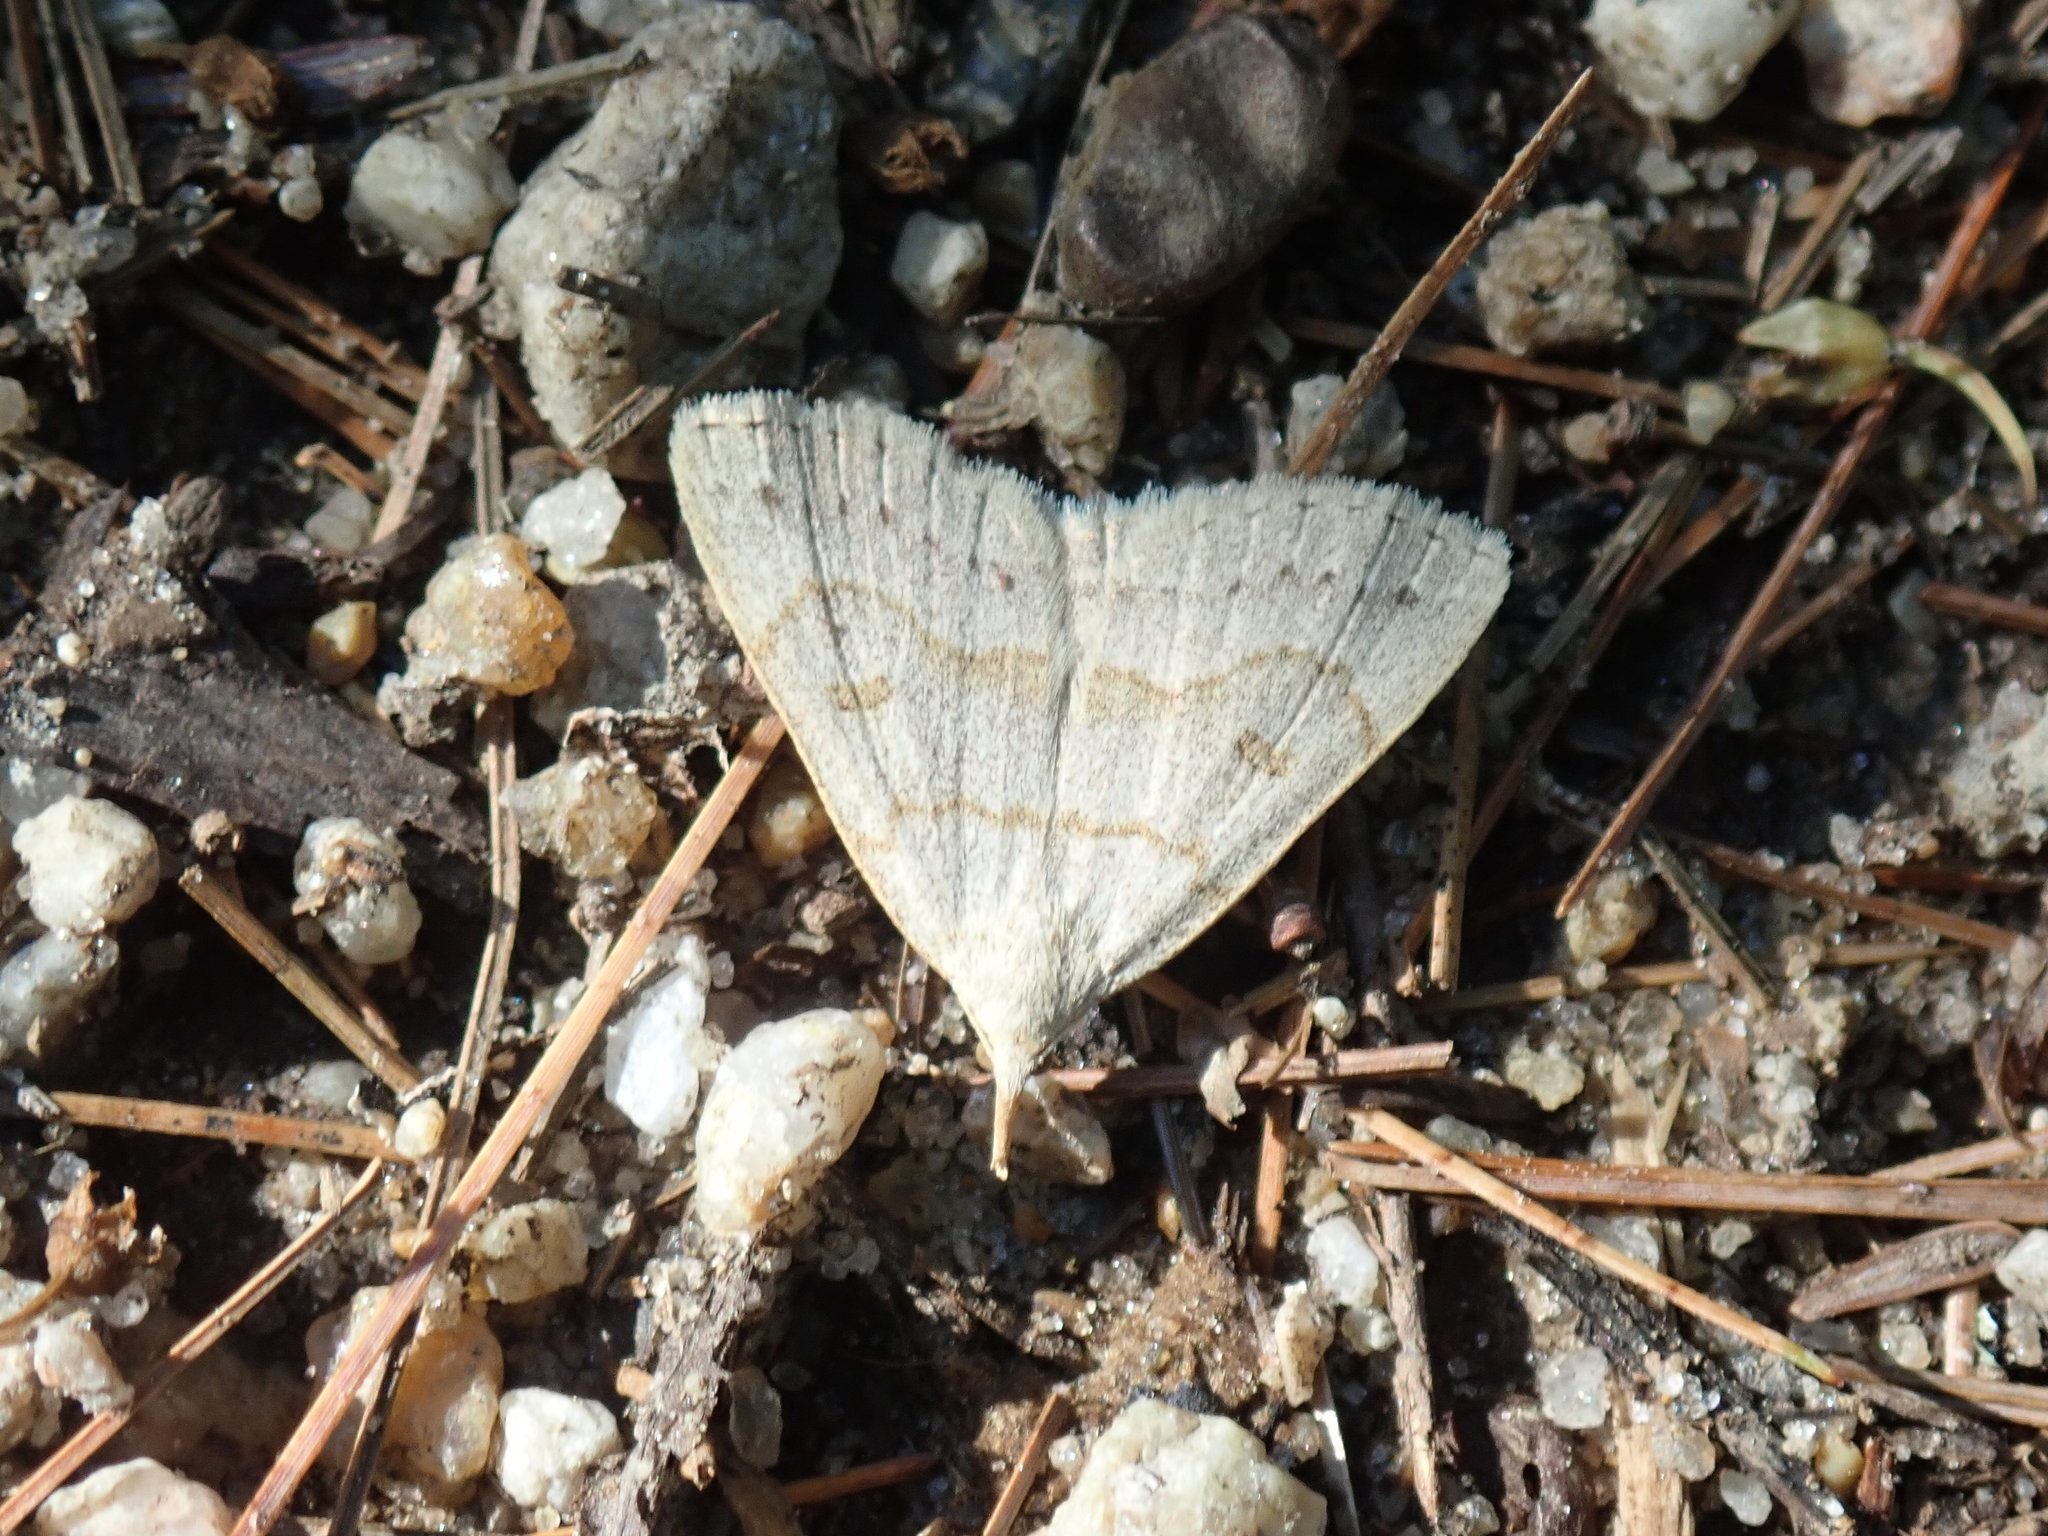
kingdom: Animalia
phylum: Arthropoda
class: Insecta
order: Lepidoptera
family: Erebidae
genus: Macrochilo
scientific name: Macrochilo morbidalis
